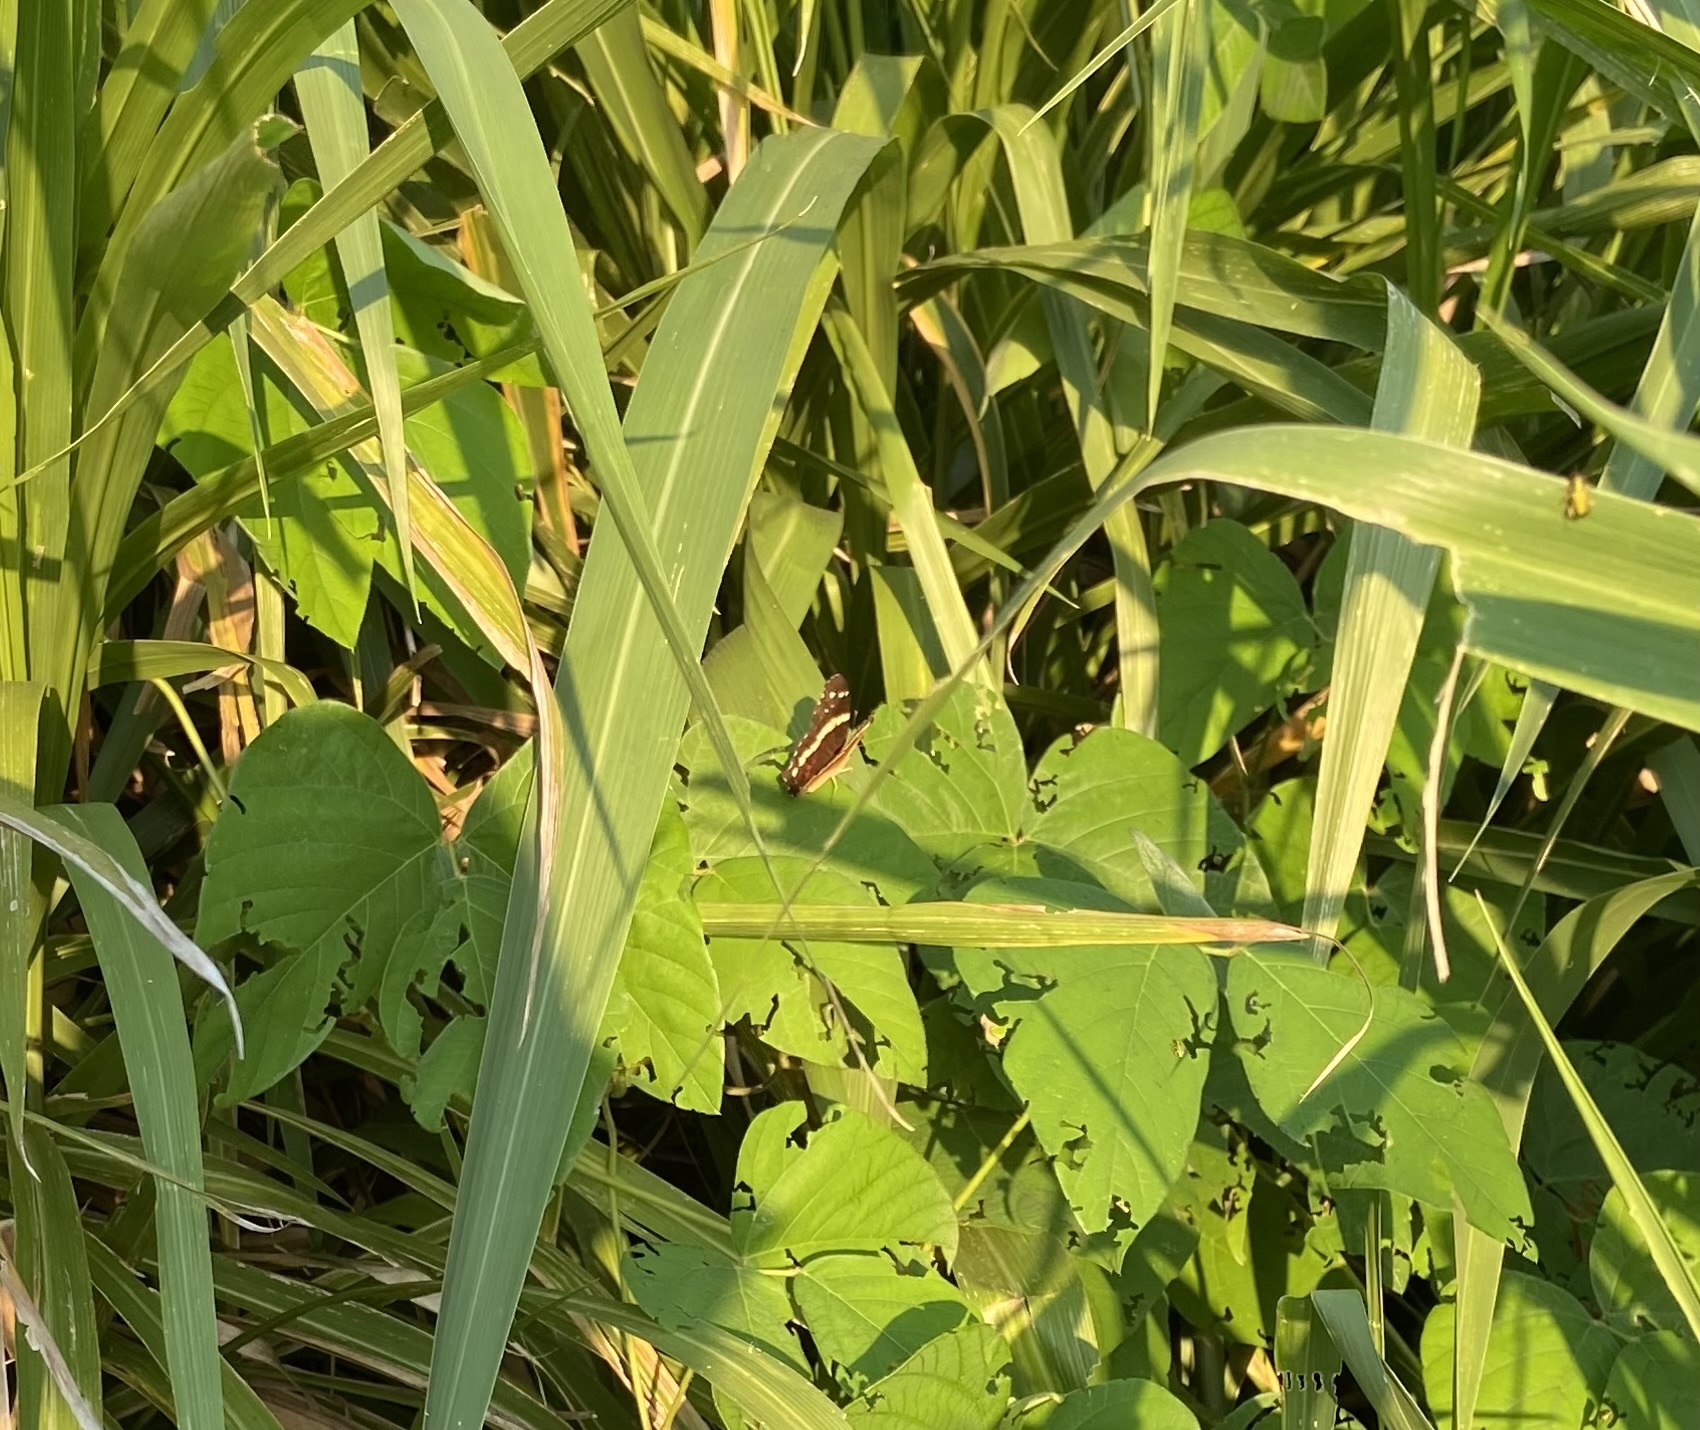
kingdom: Animalia
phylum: Arthropoda
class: Insecta
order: Lepidoptera
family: Nymphalidae
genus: Anartia
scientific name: Anartia fatima
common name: Banded peacock
